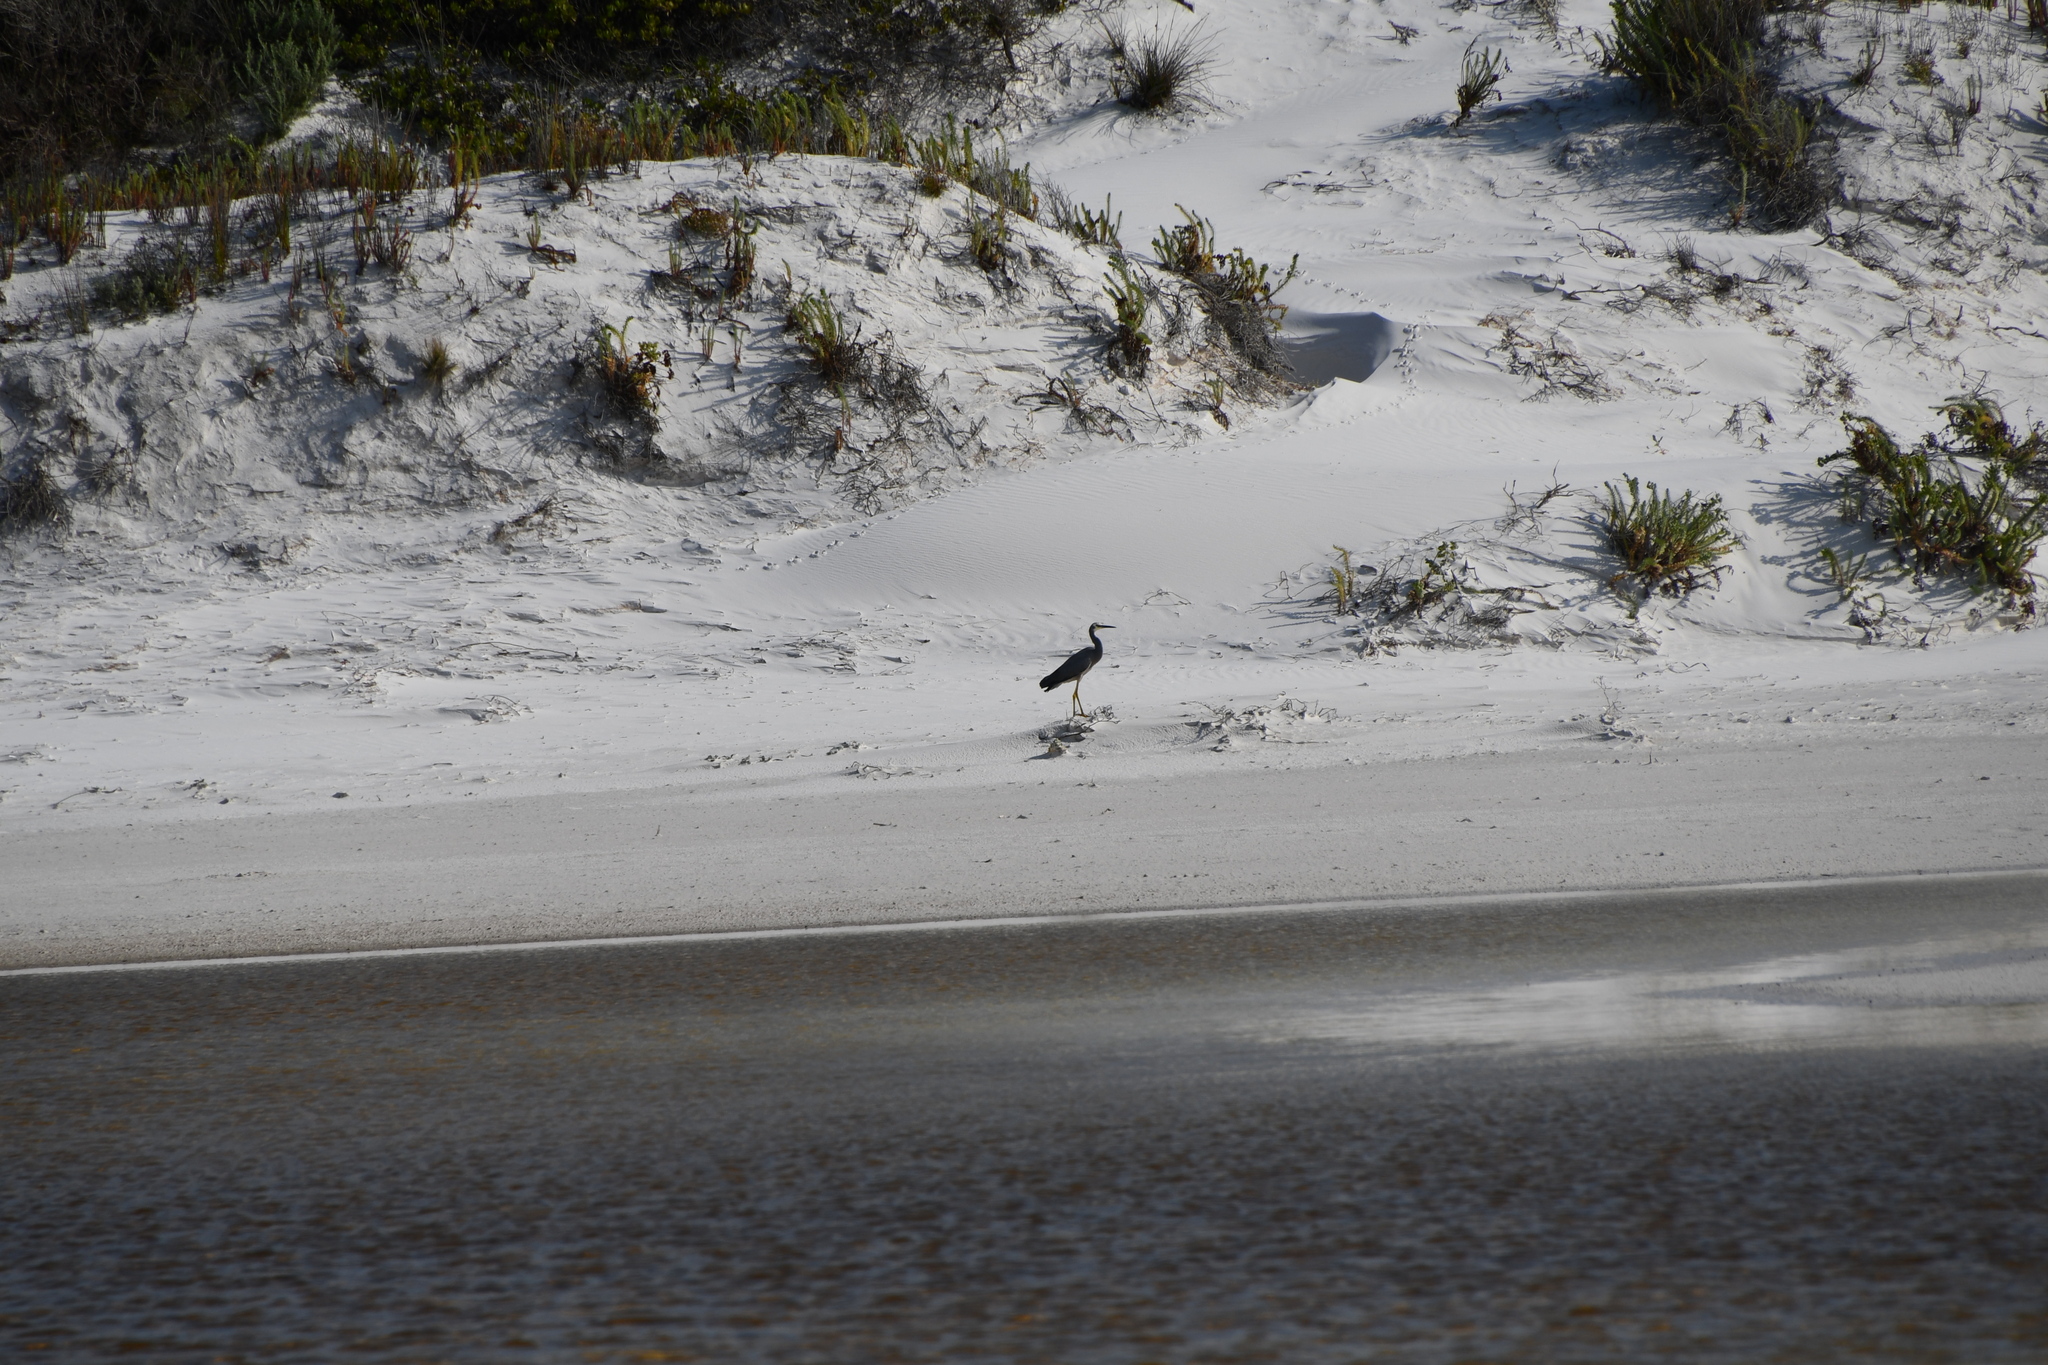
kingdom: Animalia
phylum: Chordata
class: Aves
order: Pelecaniformes
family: Ardeidae
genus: Egretta
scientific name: Egretta novaehollandiae
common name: White-faced heron
